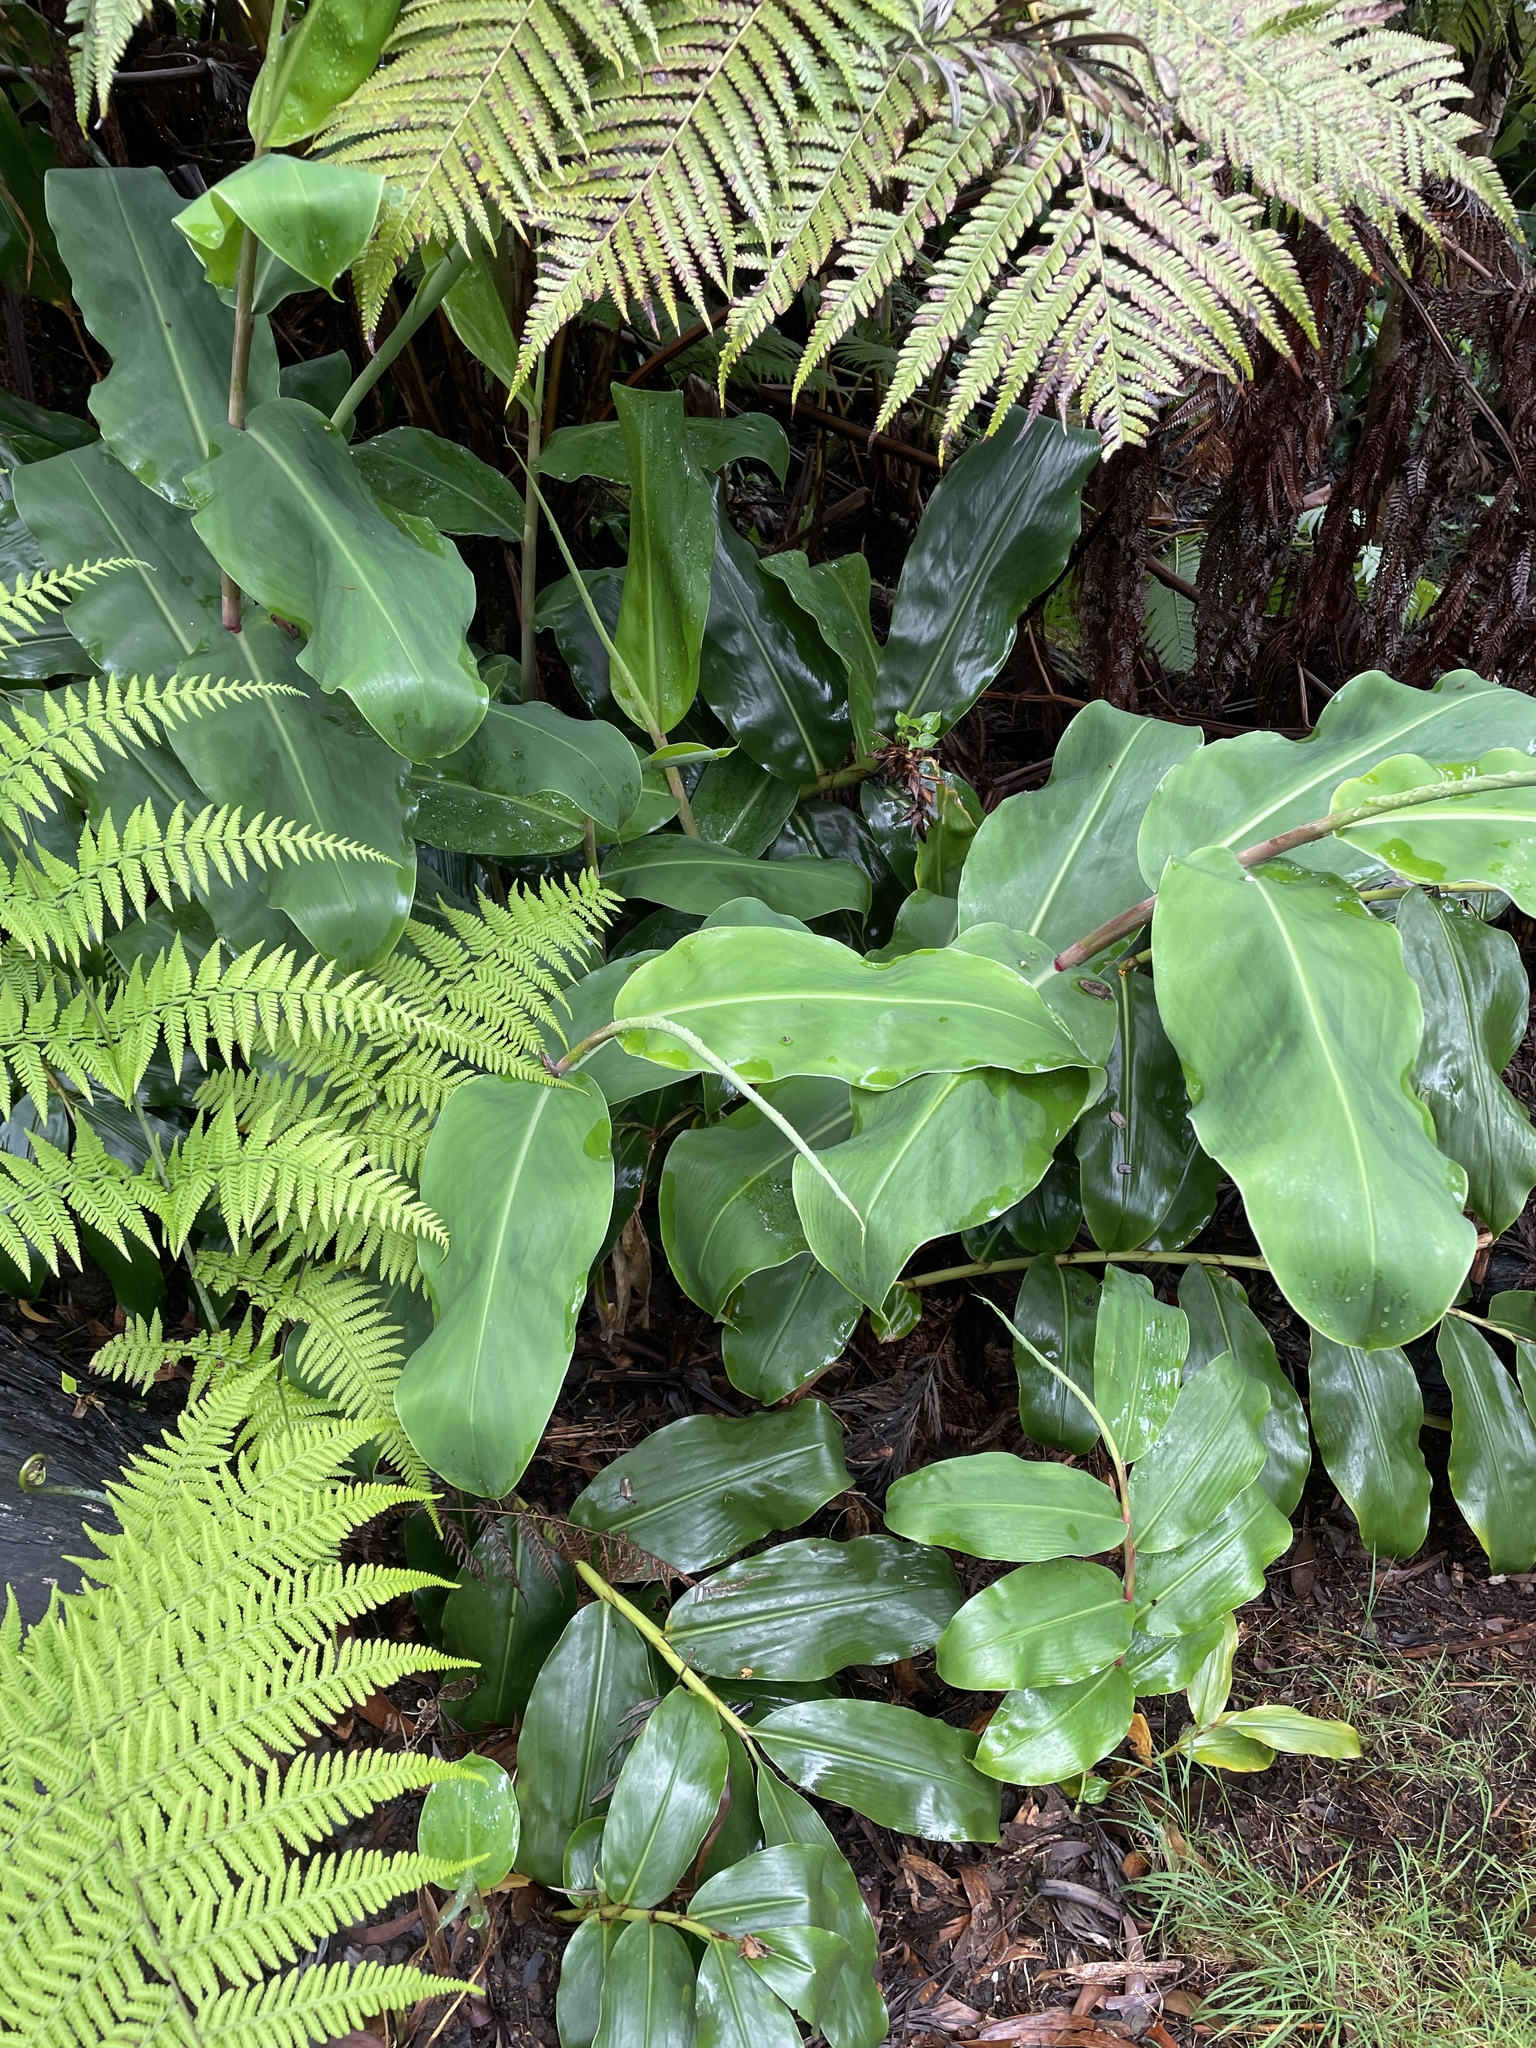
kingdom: Plantae
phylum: Tracheophyta
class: Liliopsida
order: Zingiberales
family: Zingiberaceae
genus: Hedychium
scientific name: Hedychium gardnerianum
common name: Himalayan ginger
